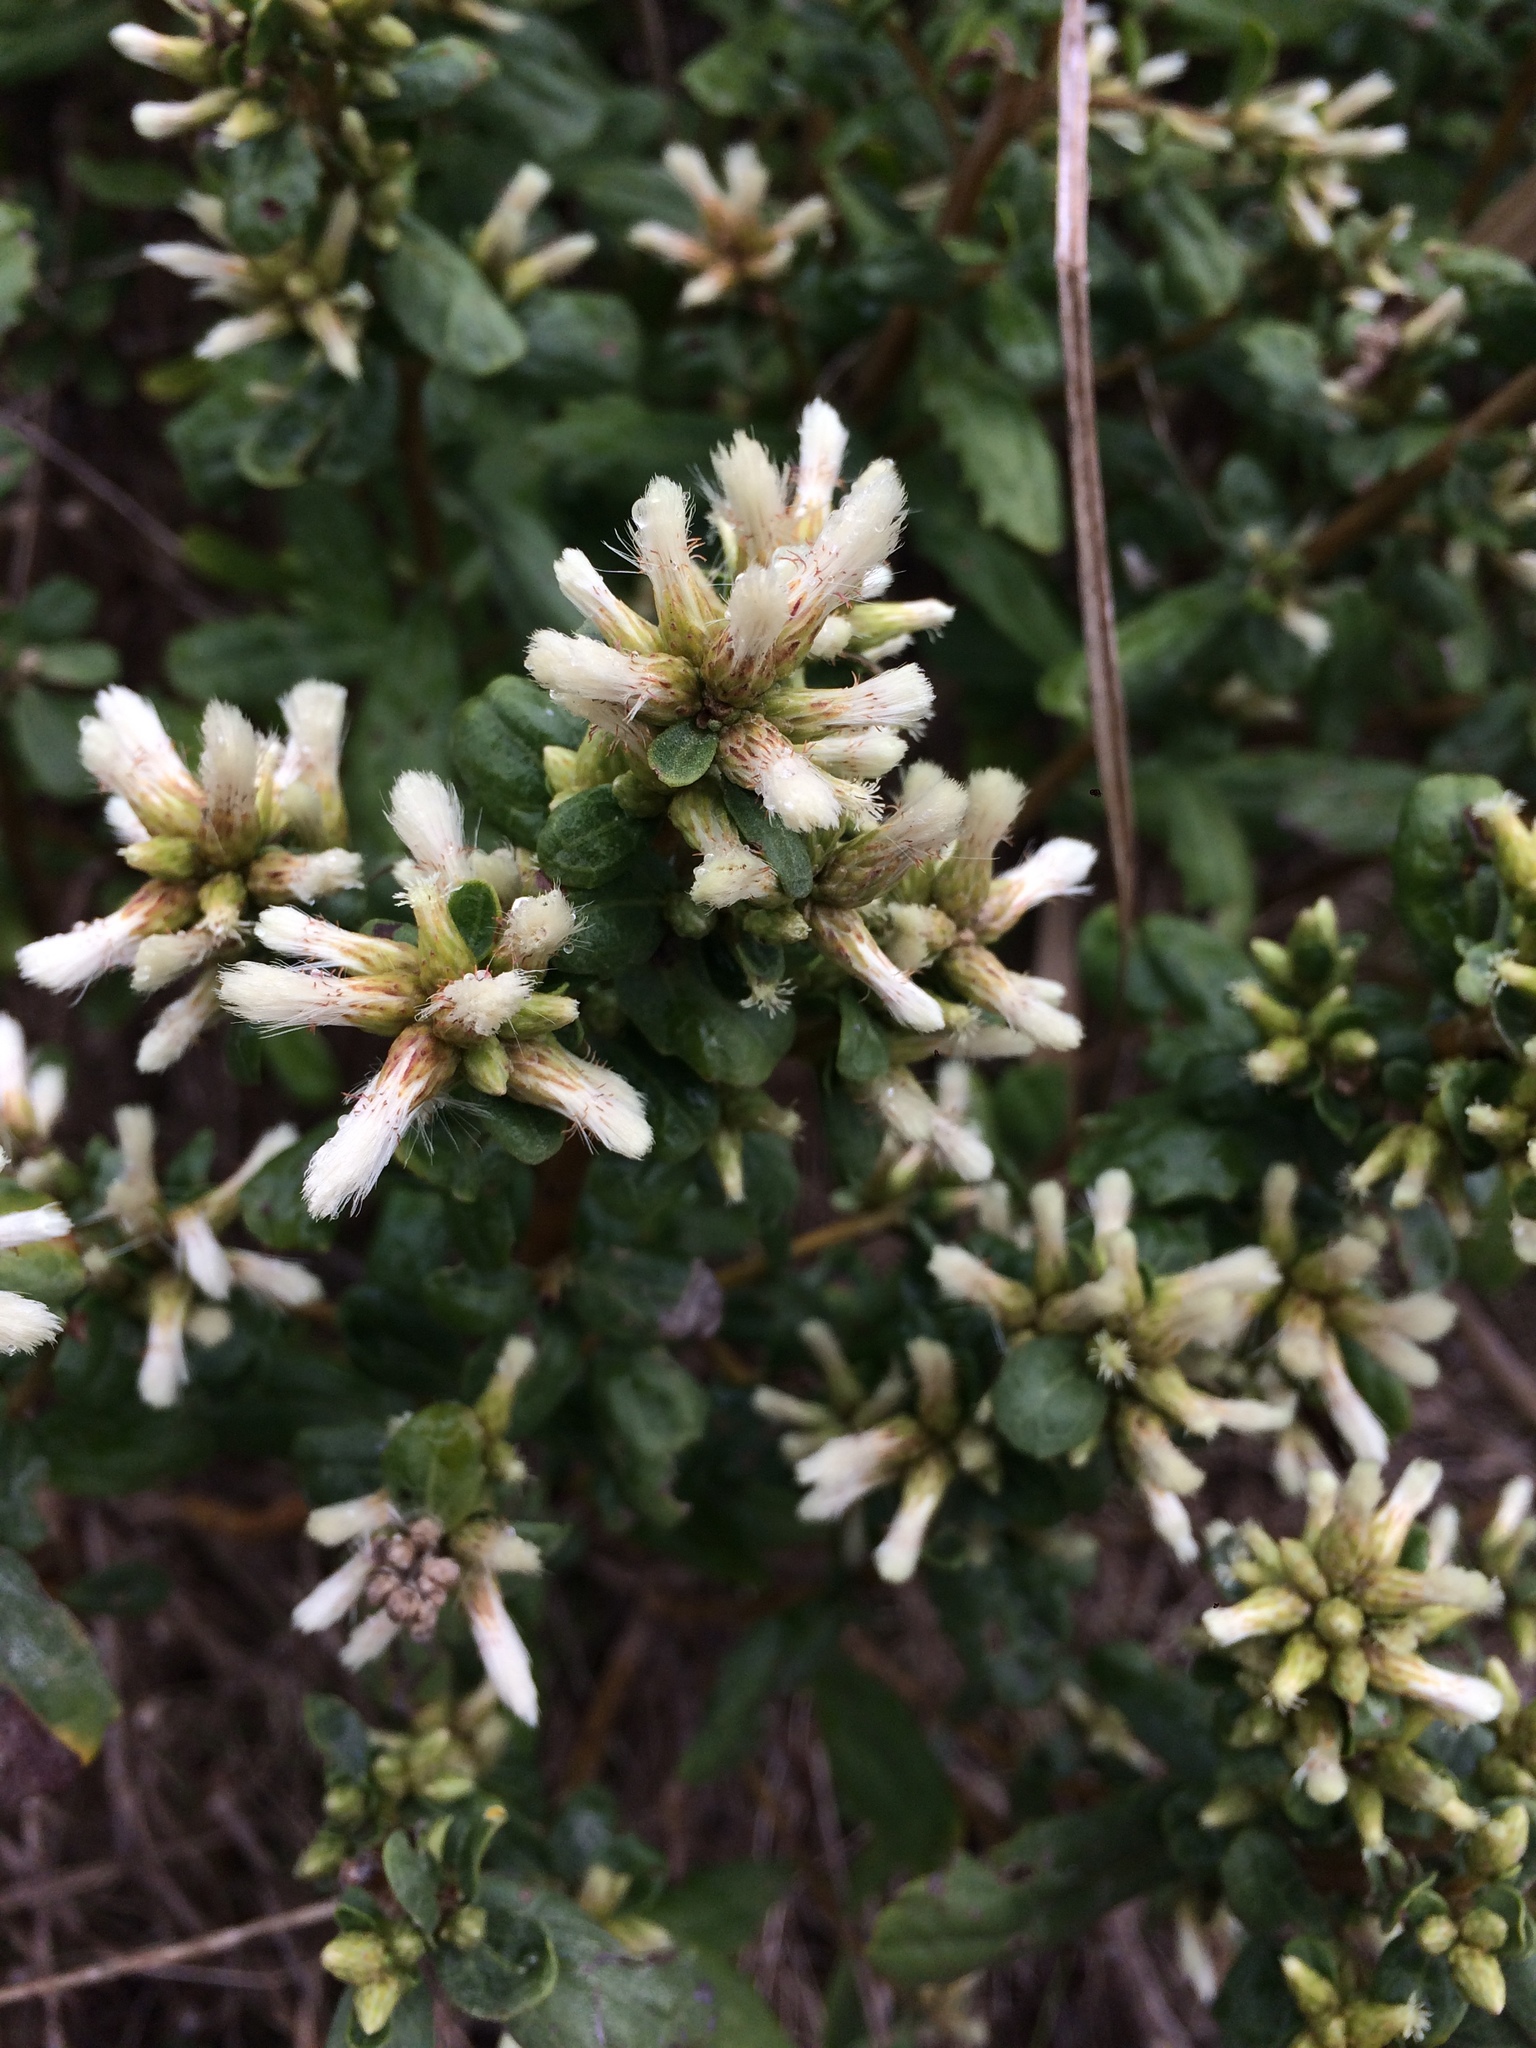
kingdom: Plantae
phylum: Tracheophyta
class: Magnoliopsida
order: Asterales
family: Asteraceae
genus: Baccharis
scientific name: Baccharis pilularis
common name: Coyotebrush
